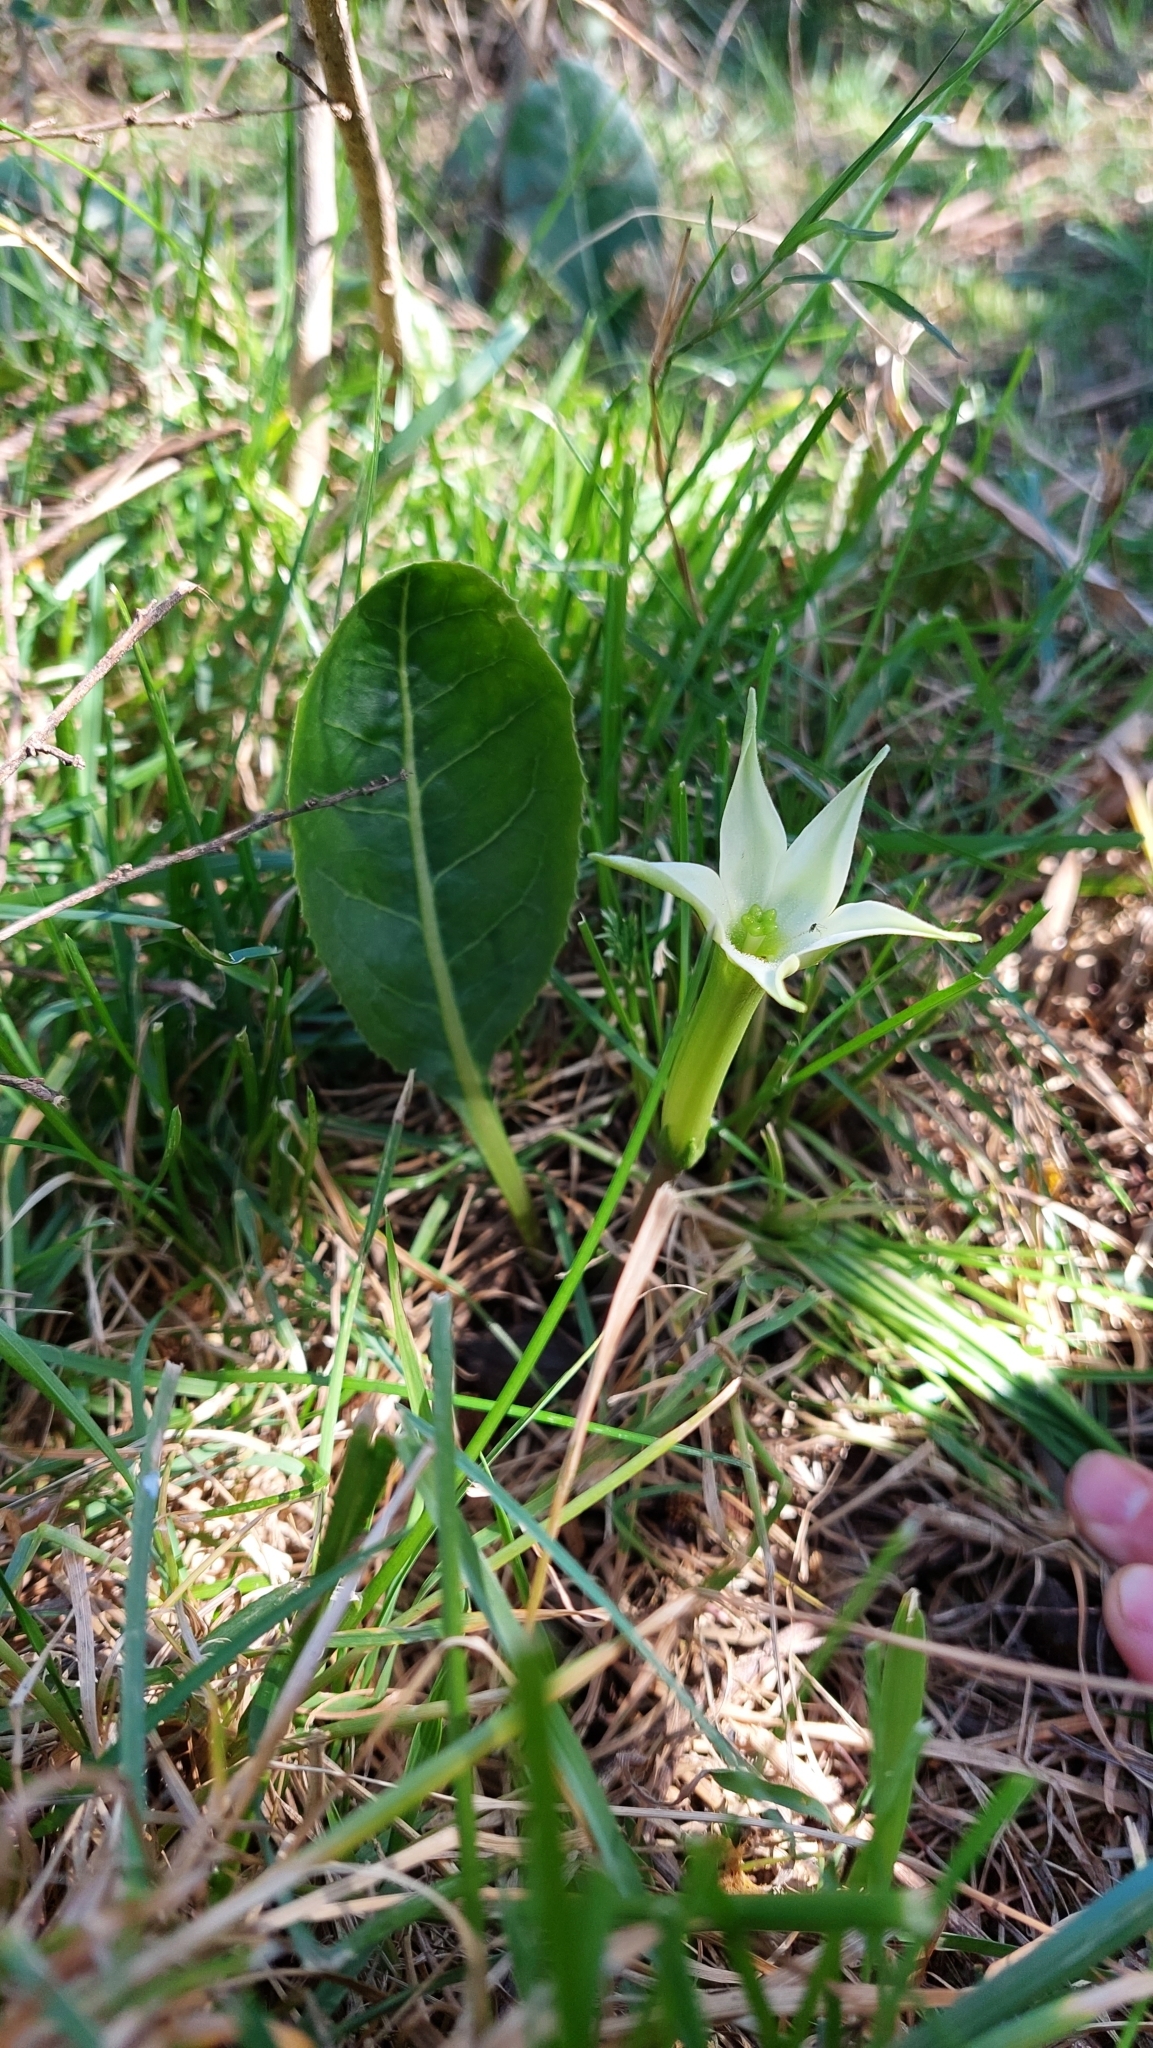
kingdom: Plantae
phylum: Tracheophyta
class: Magnoliopsida
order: Solanales
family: Solanaceae
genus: Jaborosa
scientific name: Jaborosa integrifolia
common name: Springblossom
